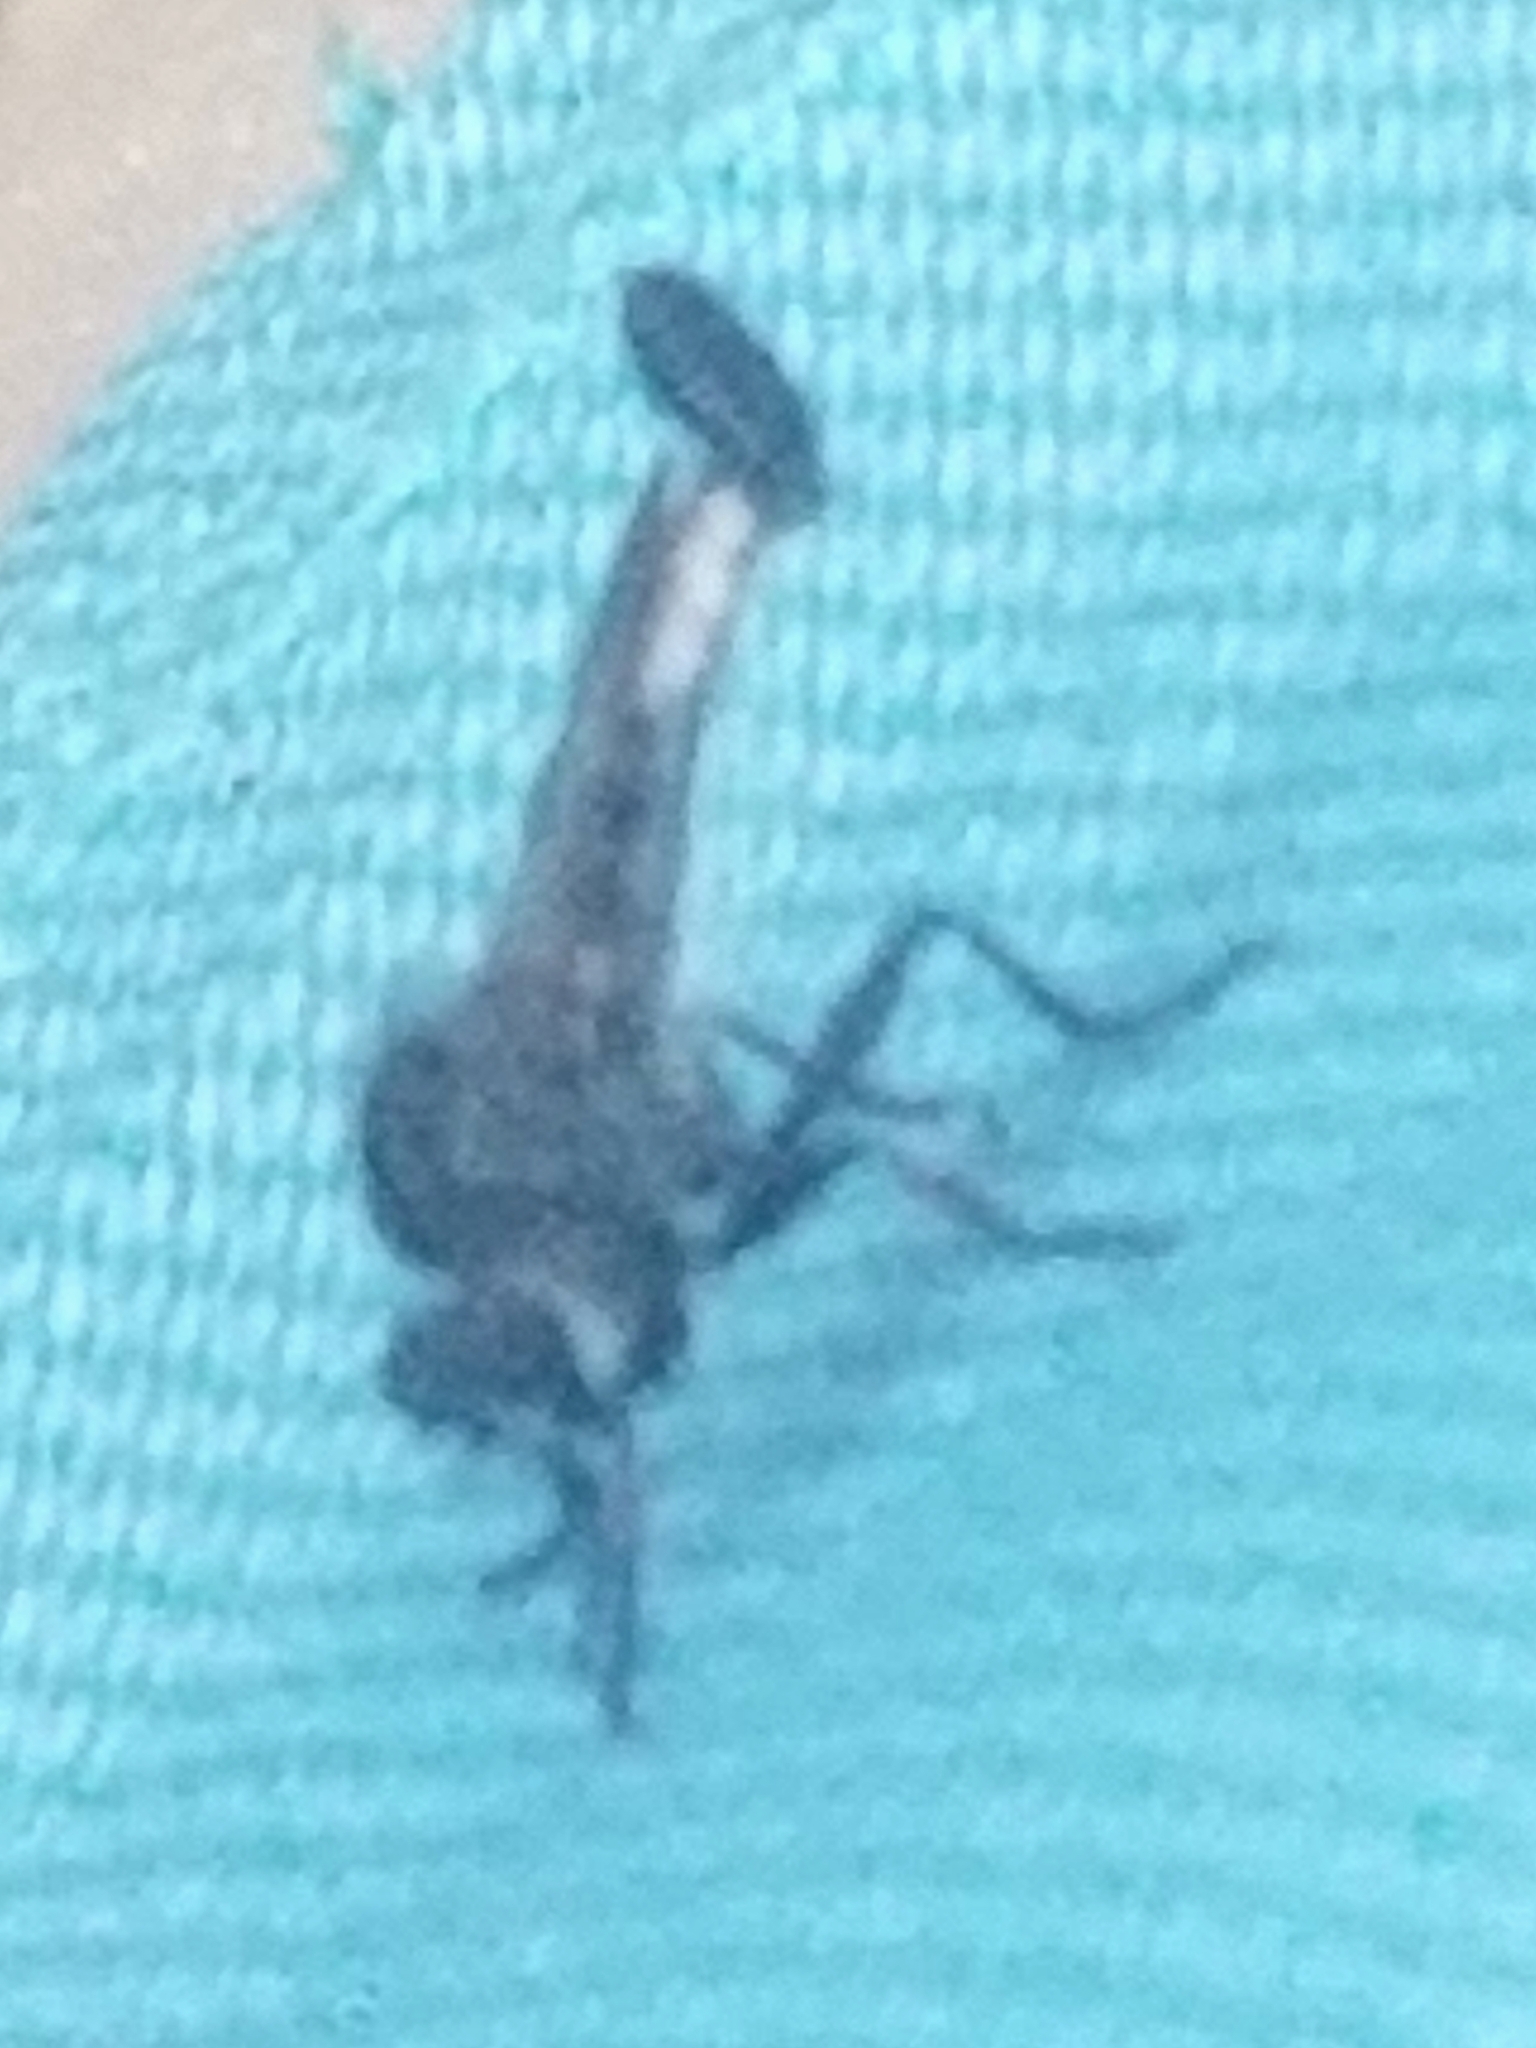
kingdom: Animalia
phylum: Arthropoda
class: Insecta
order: Diptera
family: Asilidae
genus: Efferia
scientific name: Efferia aestuans
